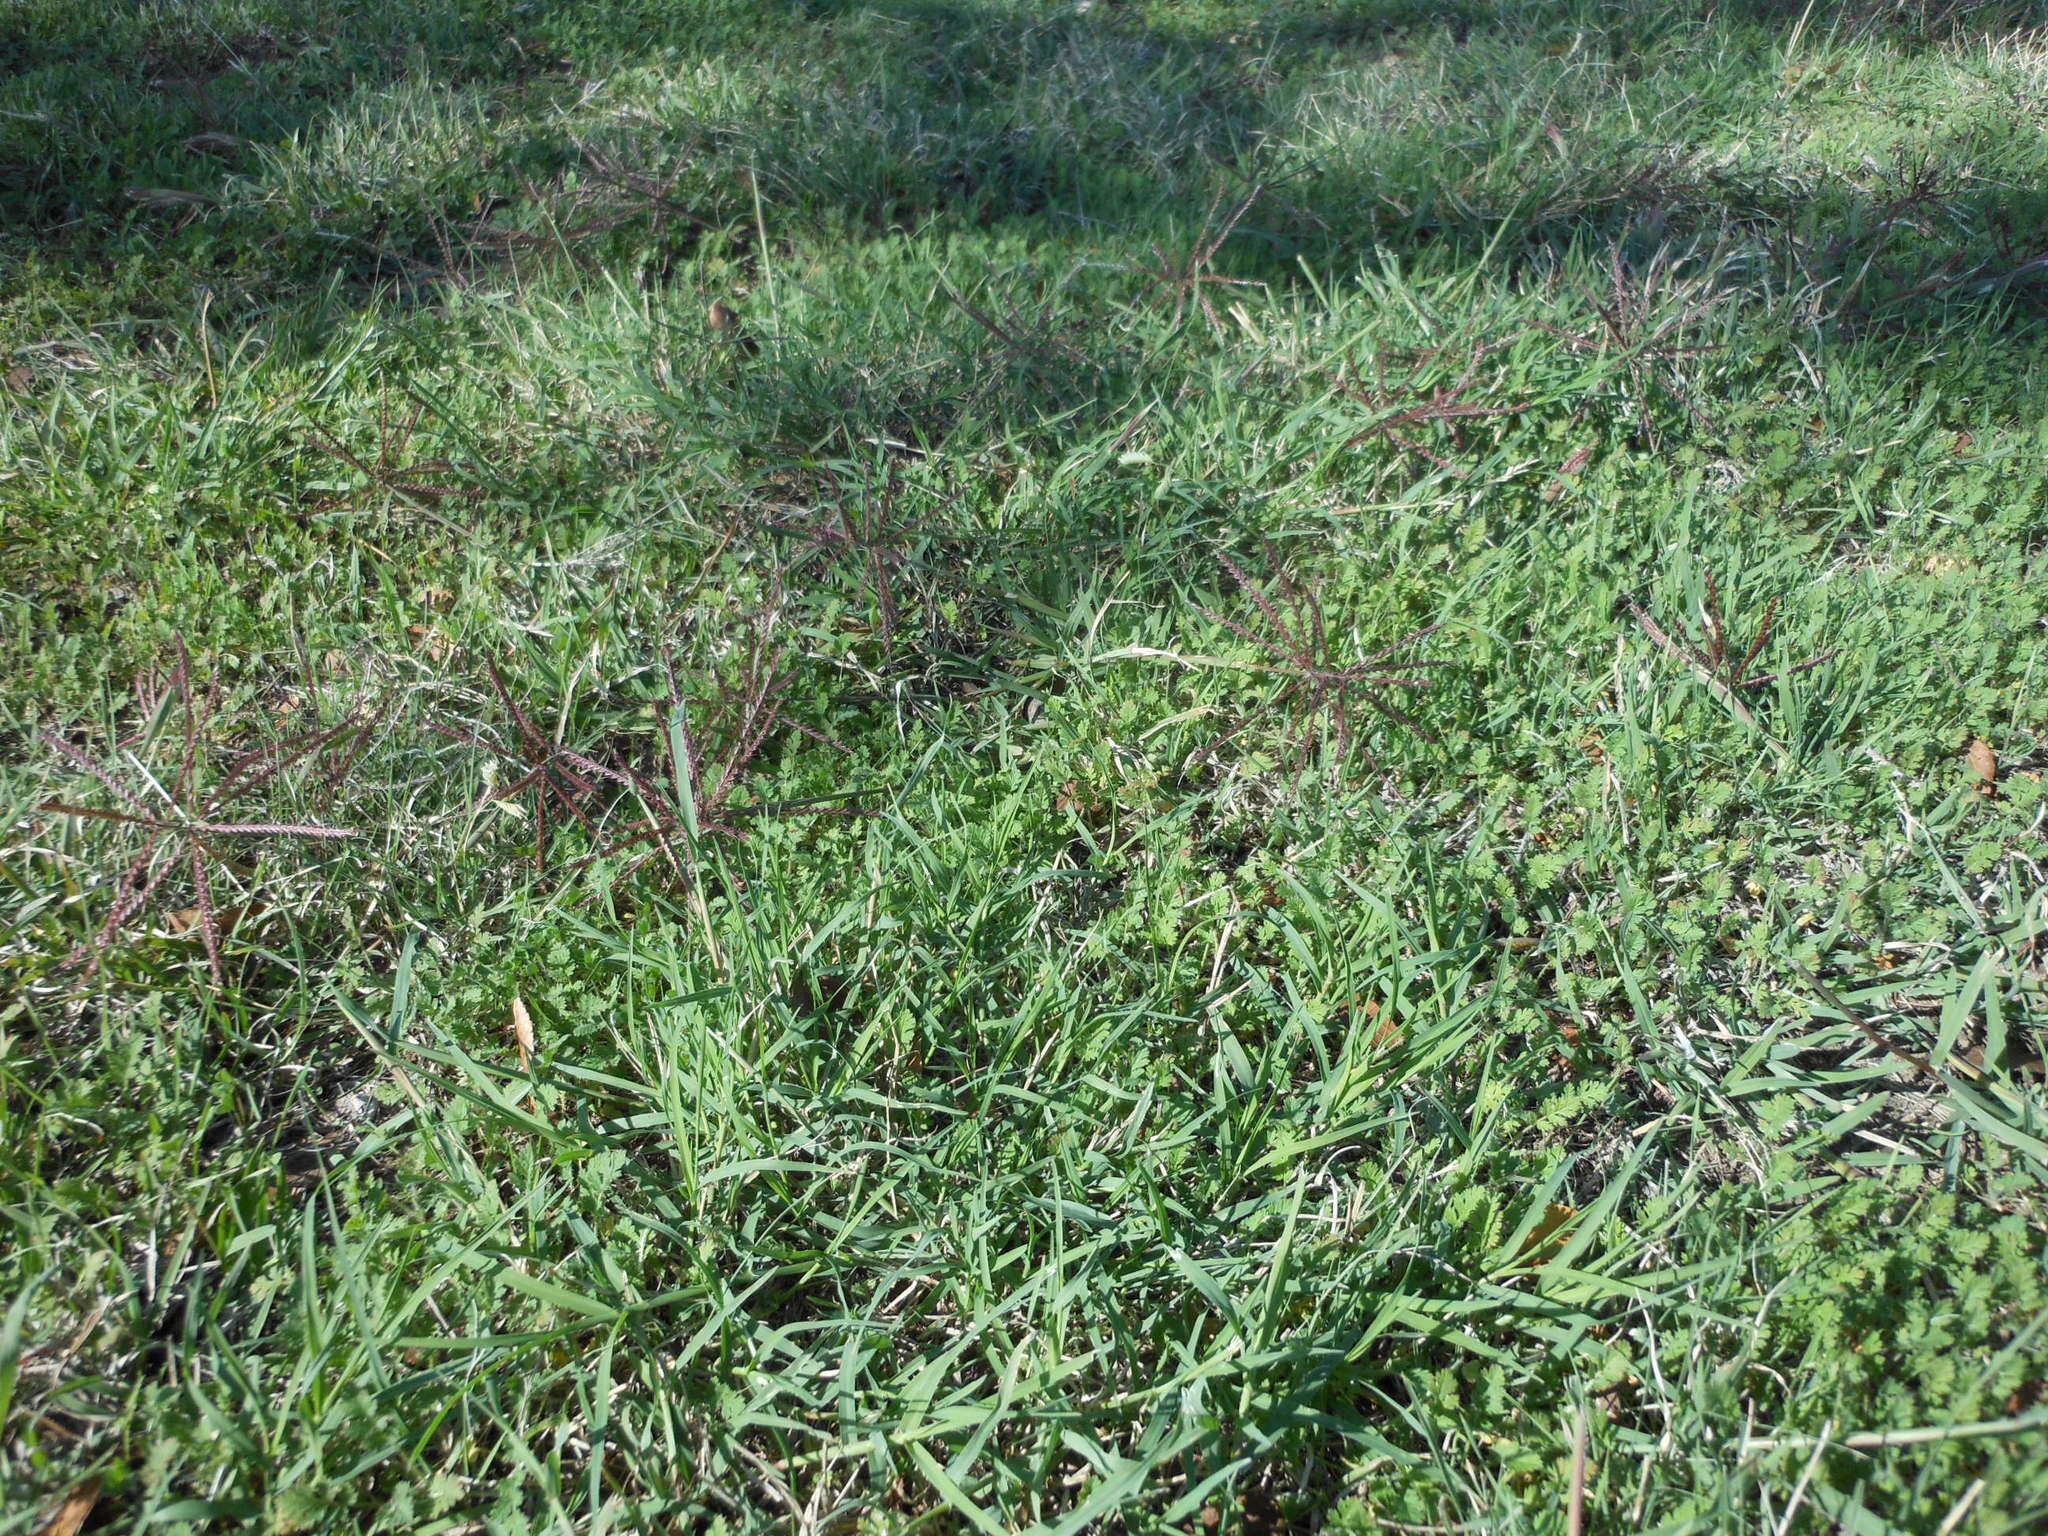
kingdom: Plantae
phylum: Tracheophyta
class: Liliopsida
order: Poales
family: Poaceae
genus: Chloris
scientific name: Chloris verticillata
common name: Tumble windmill grass
